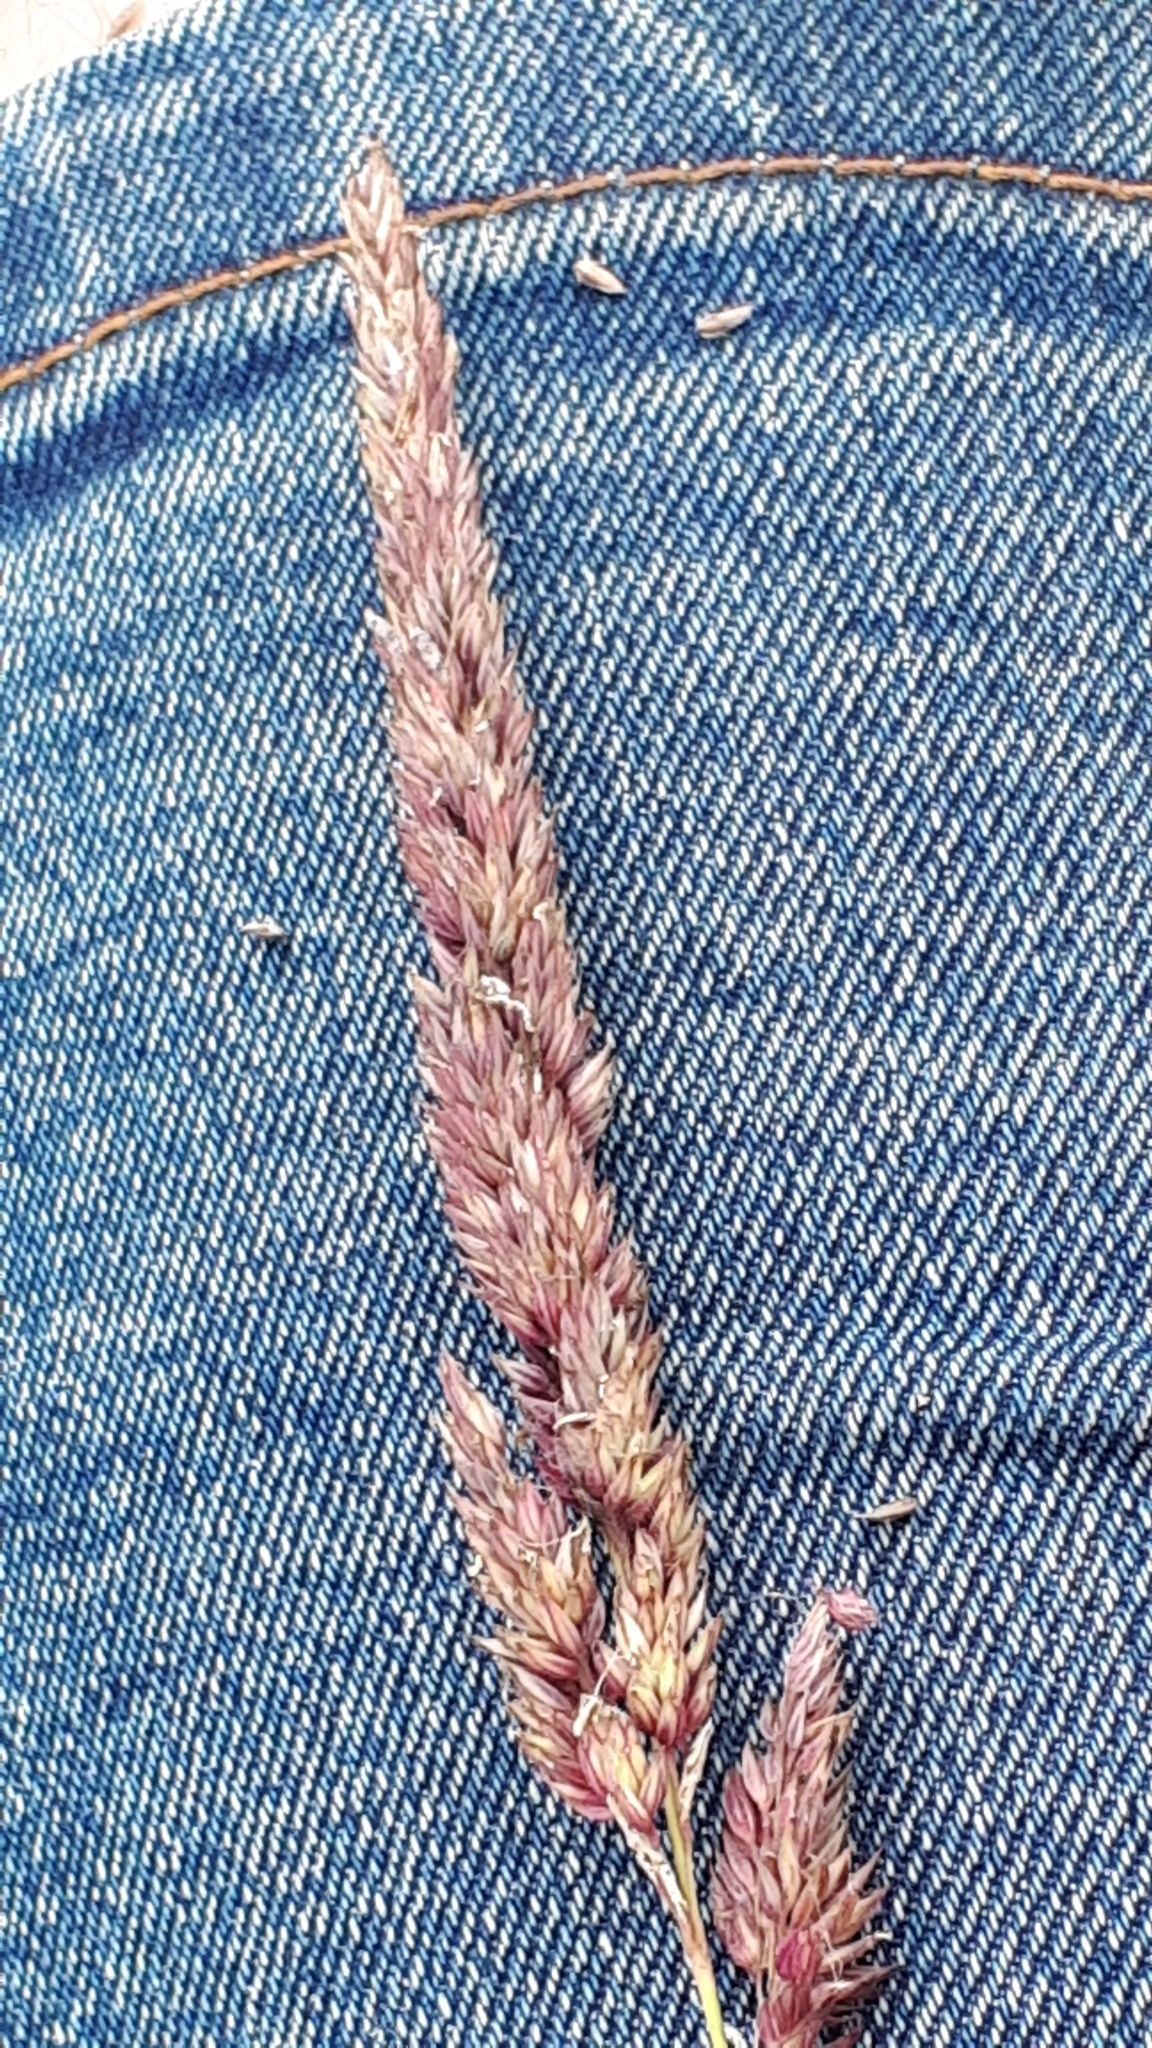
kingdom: Plantae
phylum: Tracheophyta
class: Liliopsida
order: Poales
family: Poaceae
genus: Phalaris
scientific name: Phalaris arundinacea
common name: Reed canary-grass
